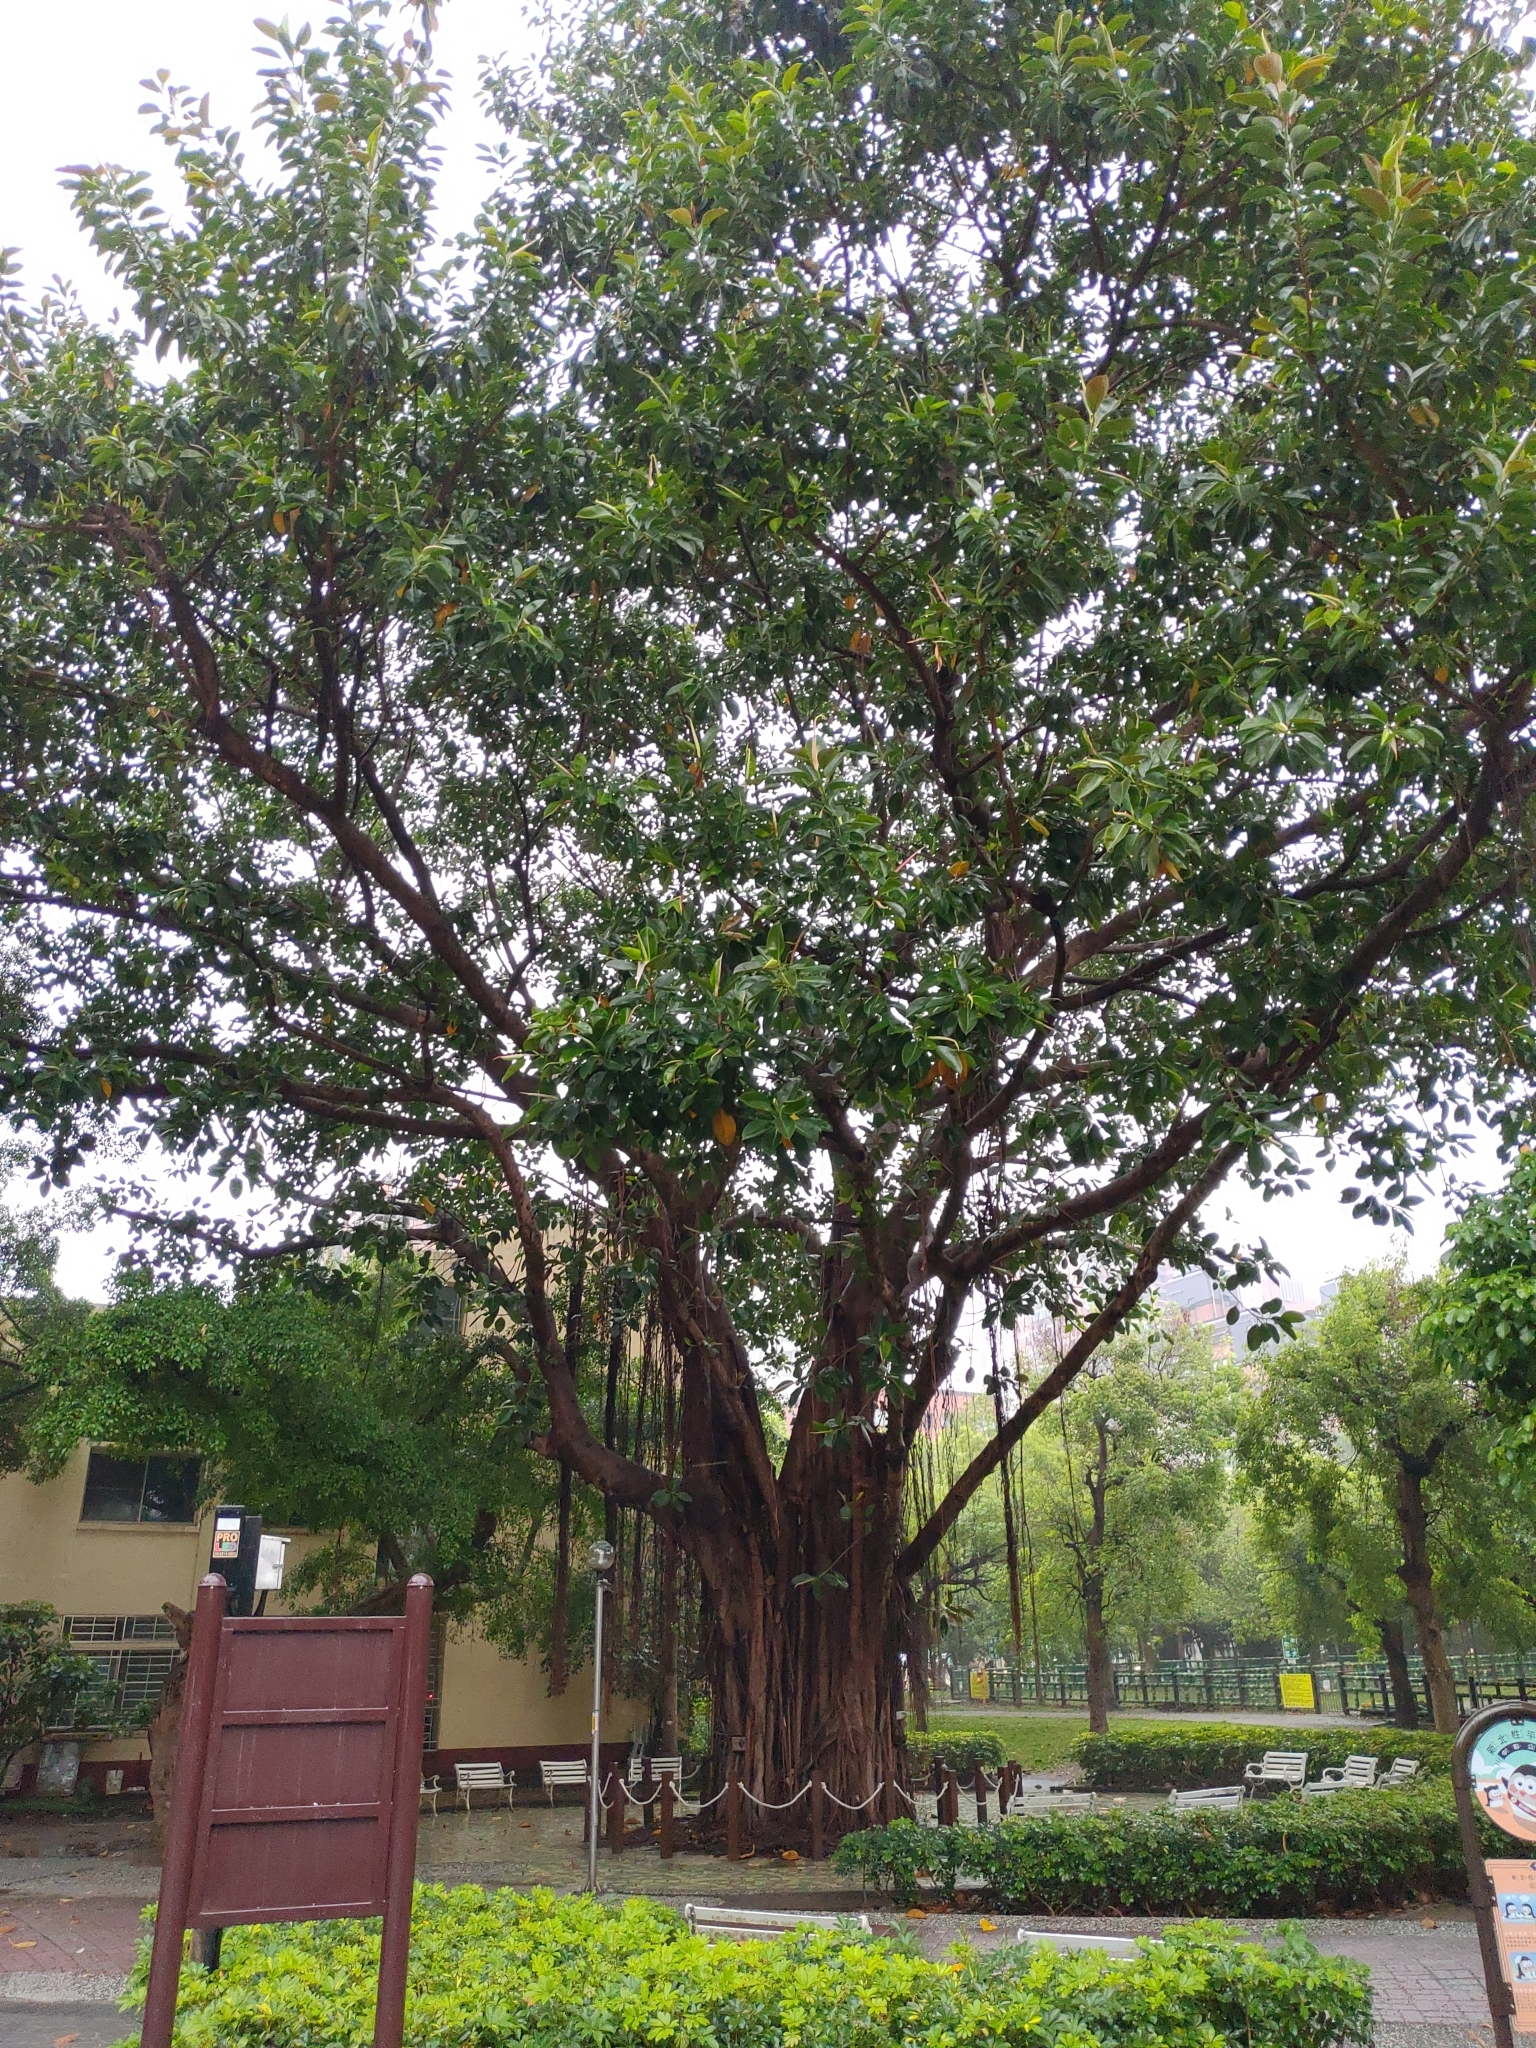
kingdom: Plantae
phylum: Tracheophyta
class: Magnoliopsida
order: Rosales
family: Moraceae
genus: Ficus
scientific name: Ficus microcarpa
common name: Chinese banyan
